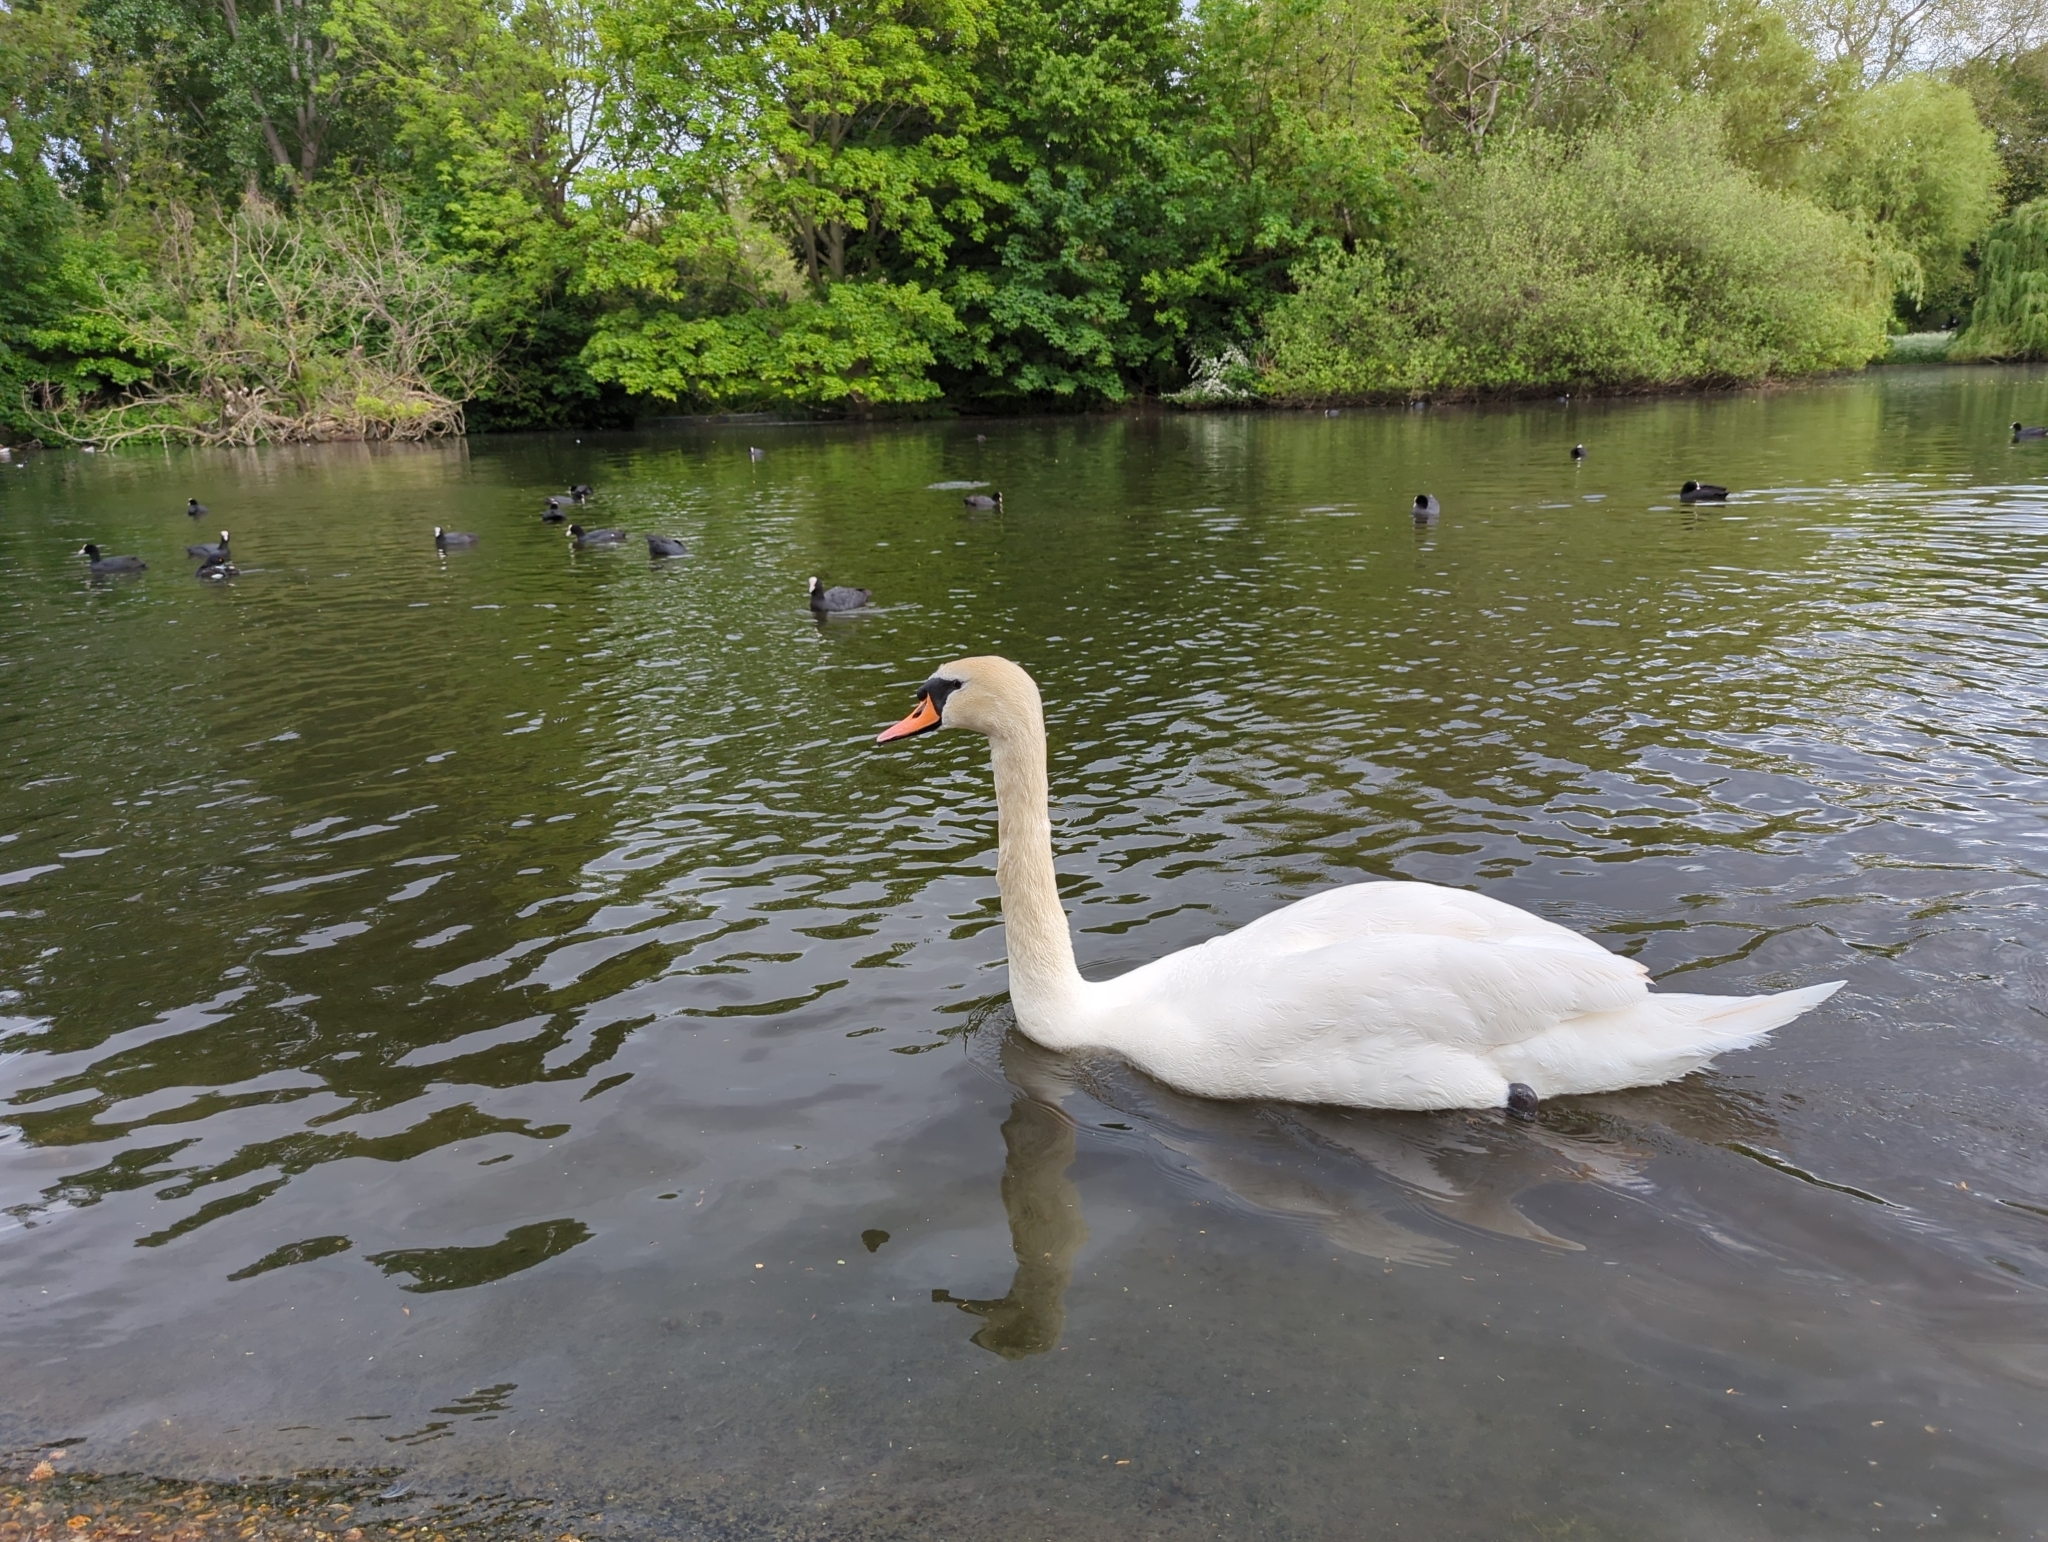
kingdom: Animalia
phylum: Chordata
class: Aves
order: Anseriformes
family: Anatidae
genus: Cygnus
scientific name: Cygnus olor
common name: Mute swan
